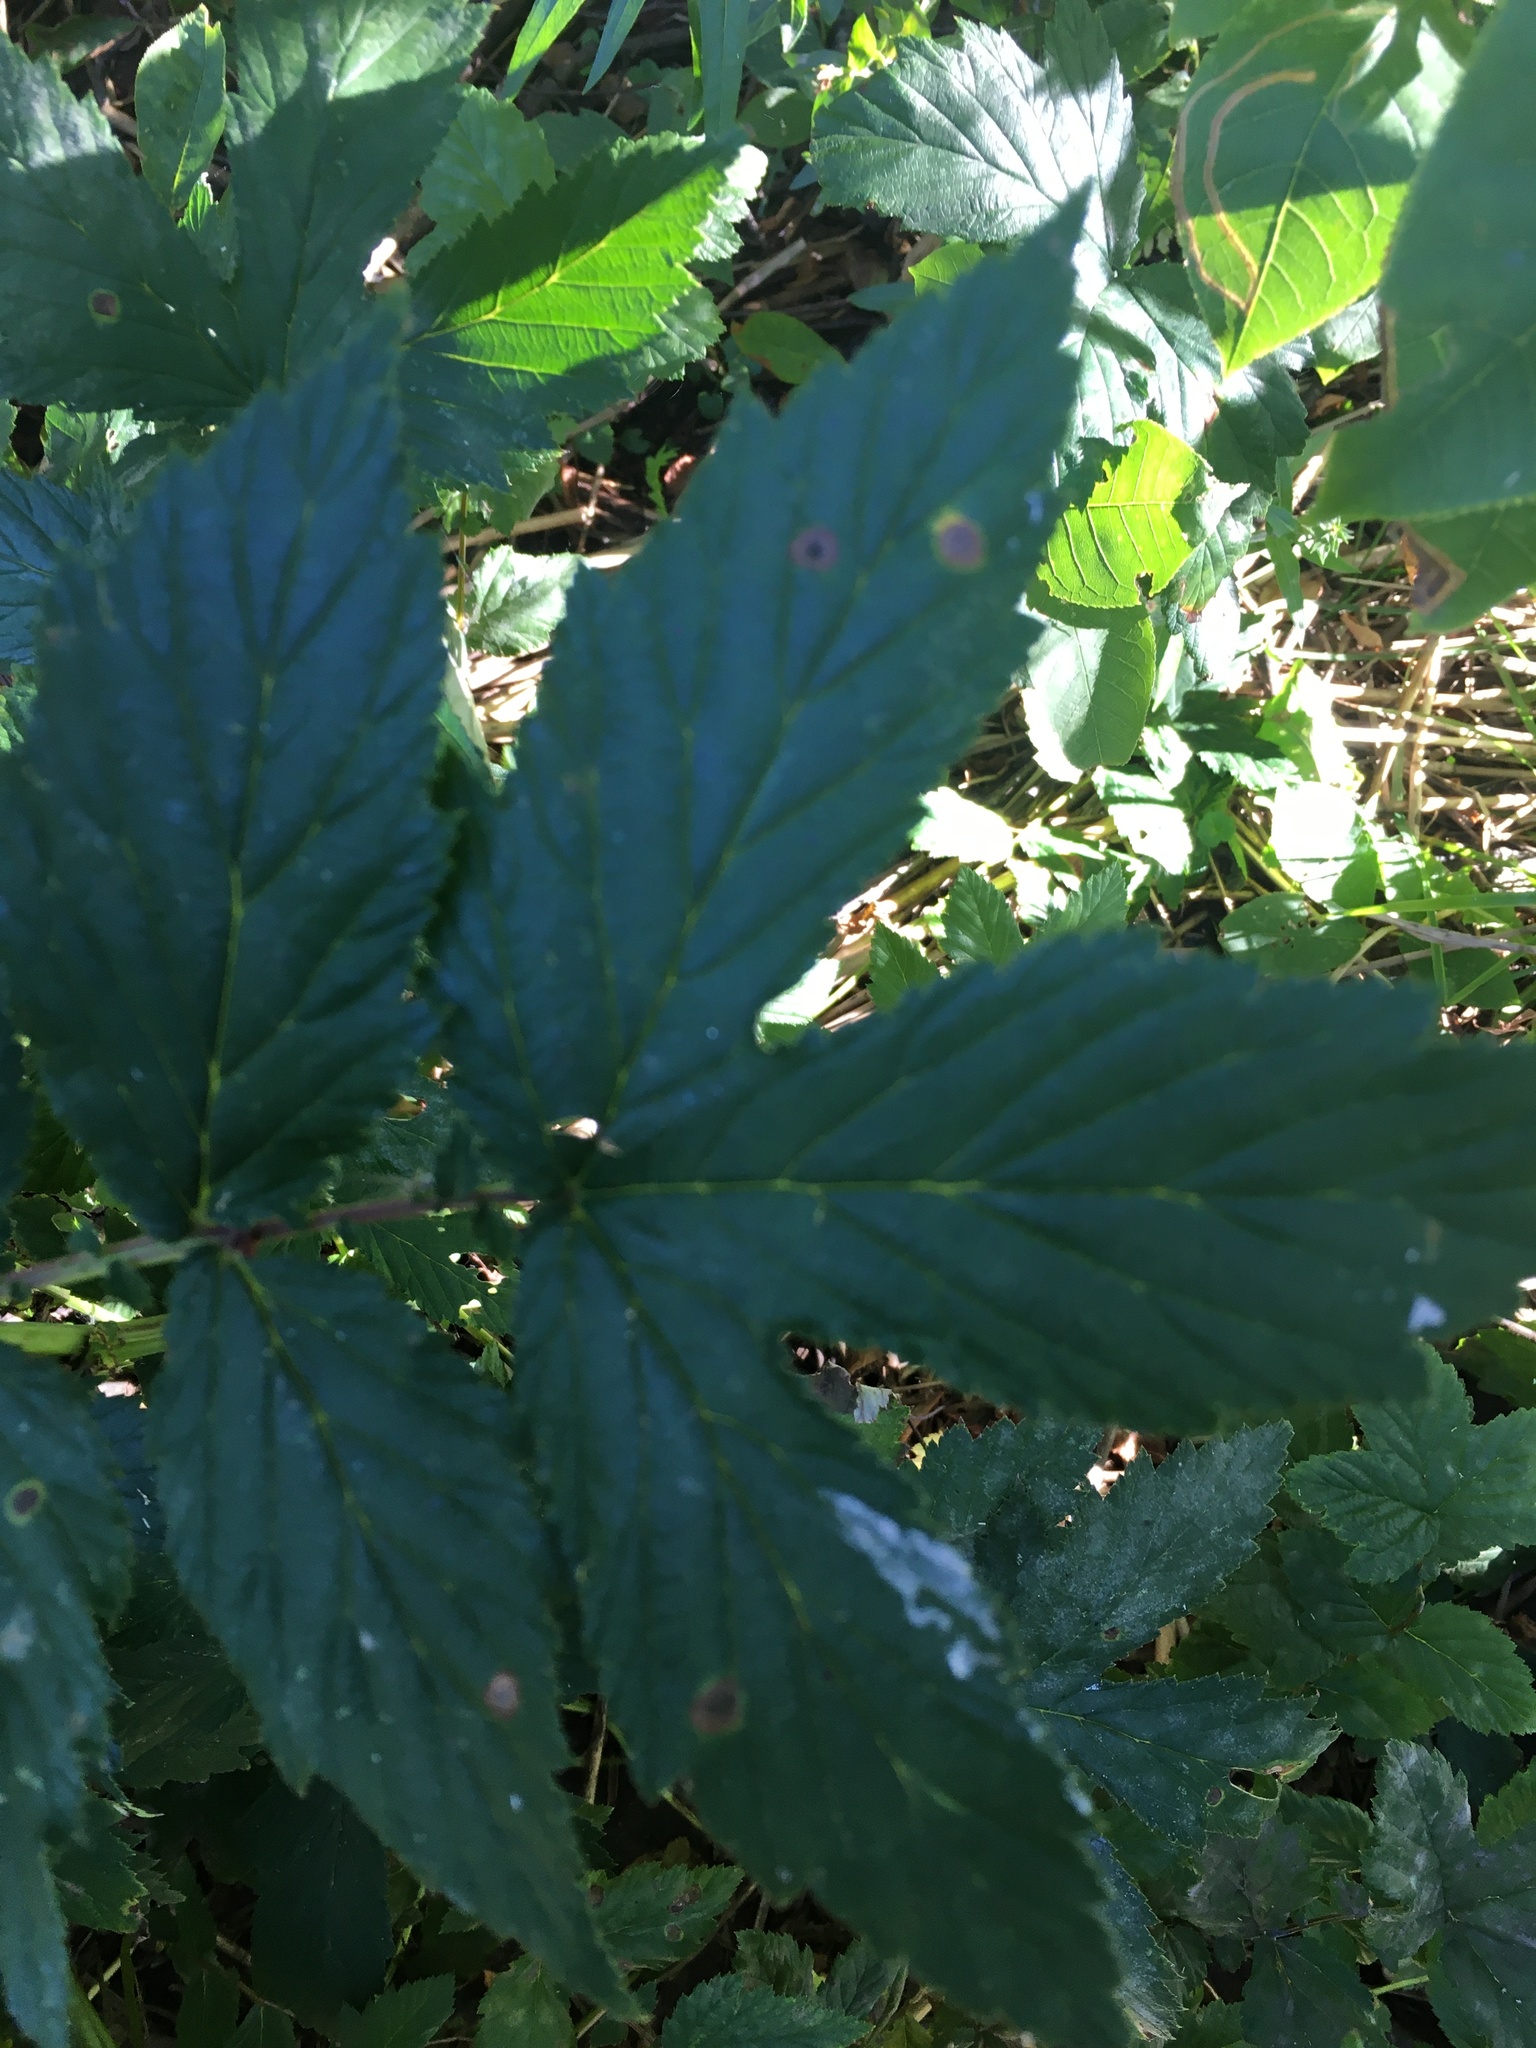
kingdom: Plantae
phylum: Tracheophyta
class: Magnoliopsida
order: Rosales
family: Rosaceae
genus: Filipendula
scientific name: Filipendula ulmaria
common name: Meadowsweet
